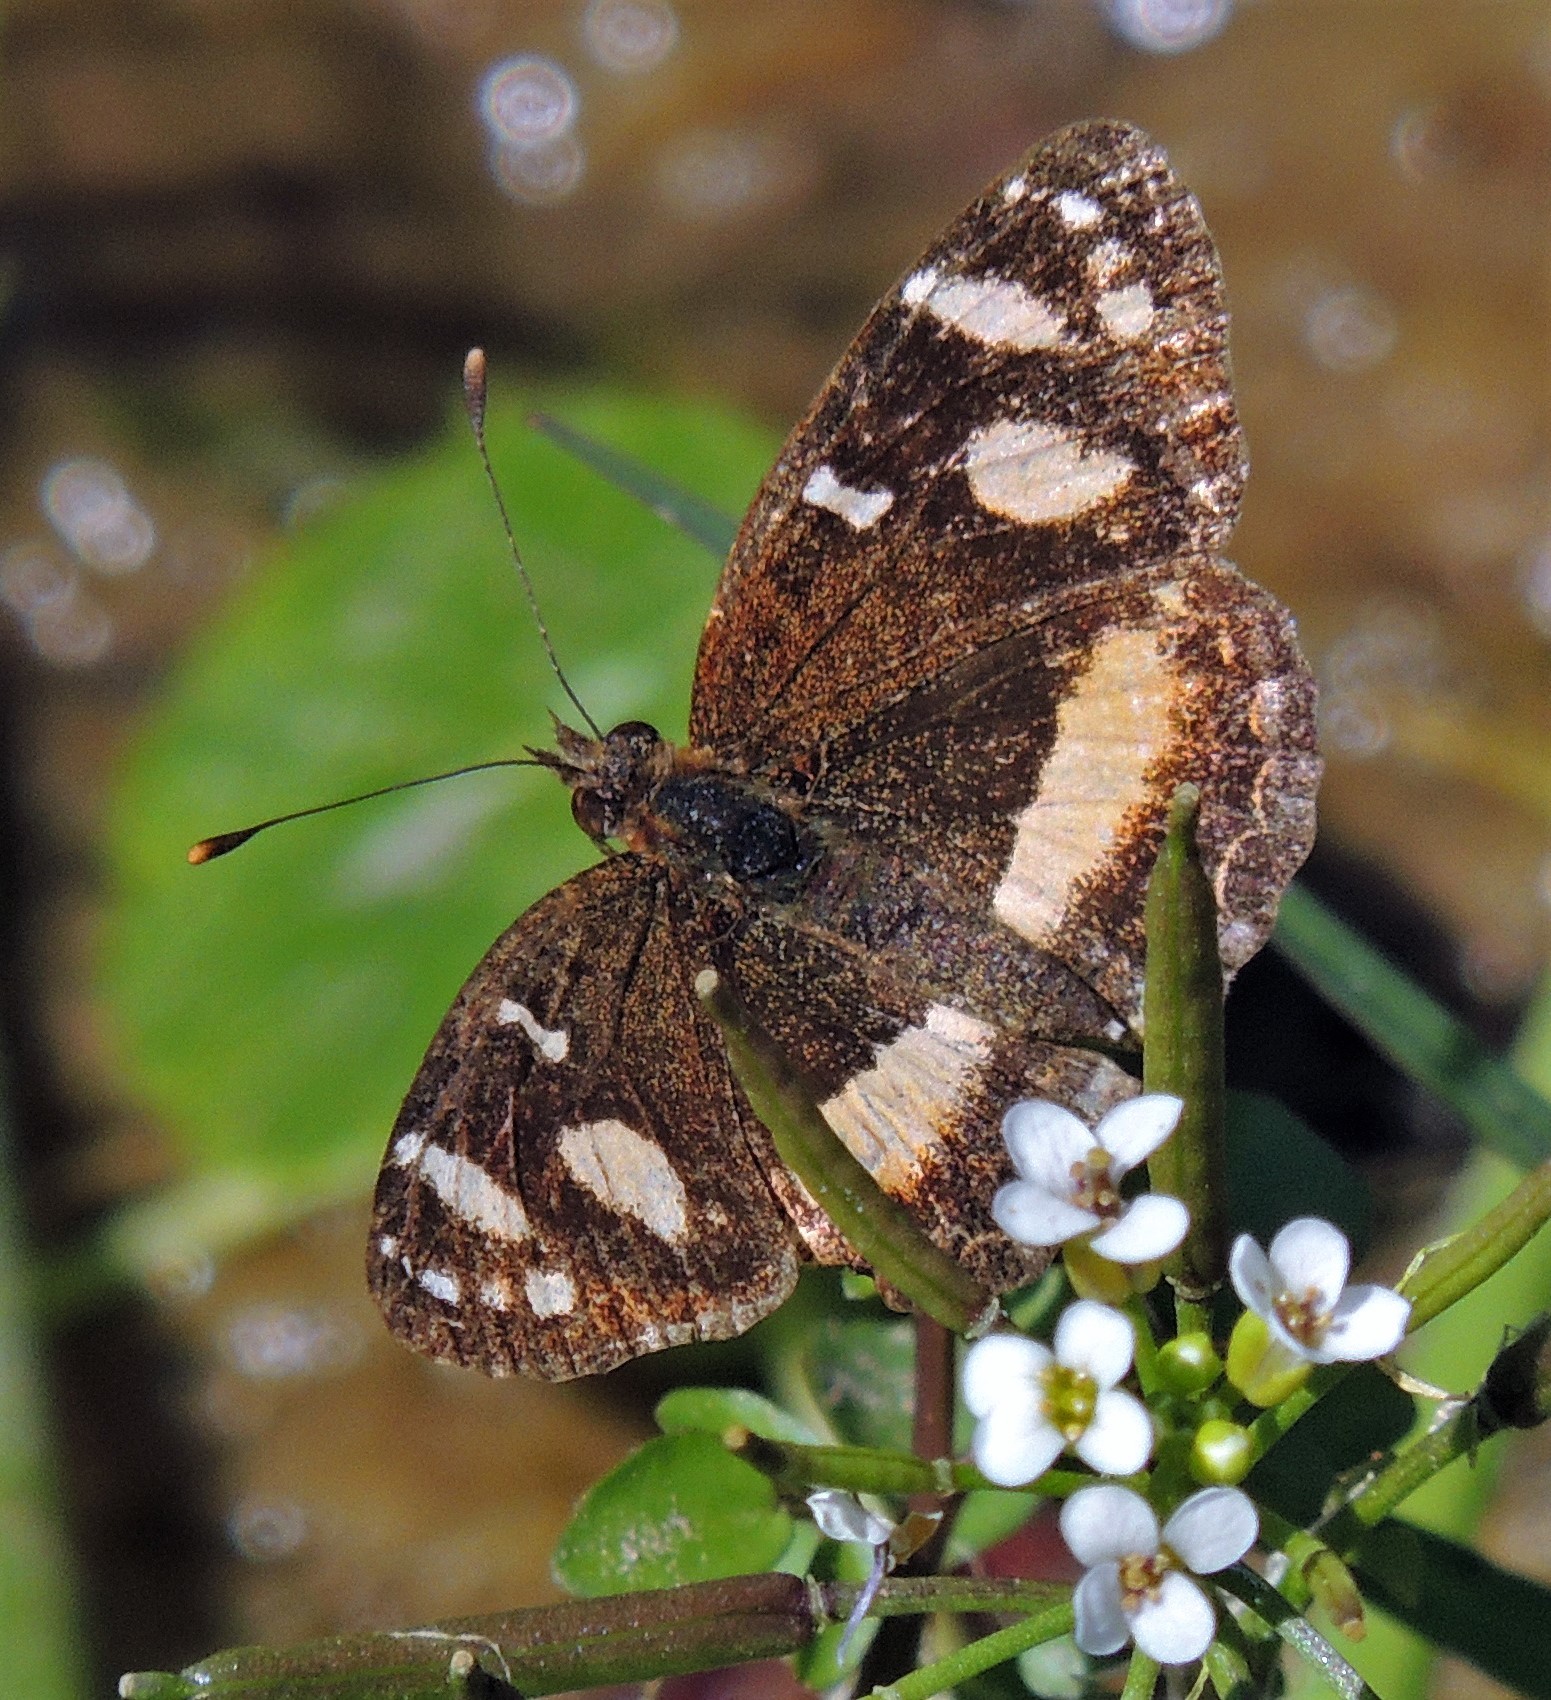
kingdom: Animalia
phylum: Arthropoda
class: Insecta
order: Lepidoptera
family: Nymphalidae
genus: Telenassa
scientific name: Telenassa berenice
